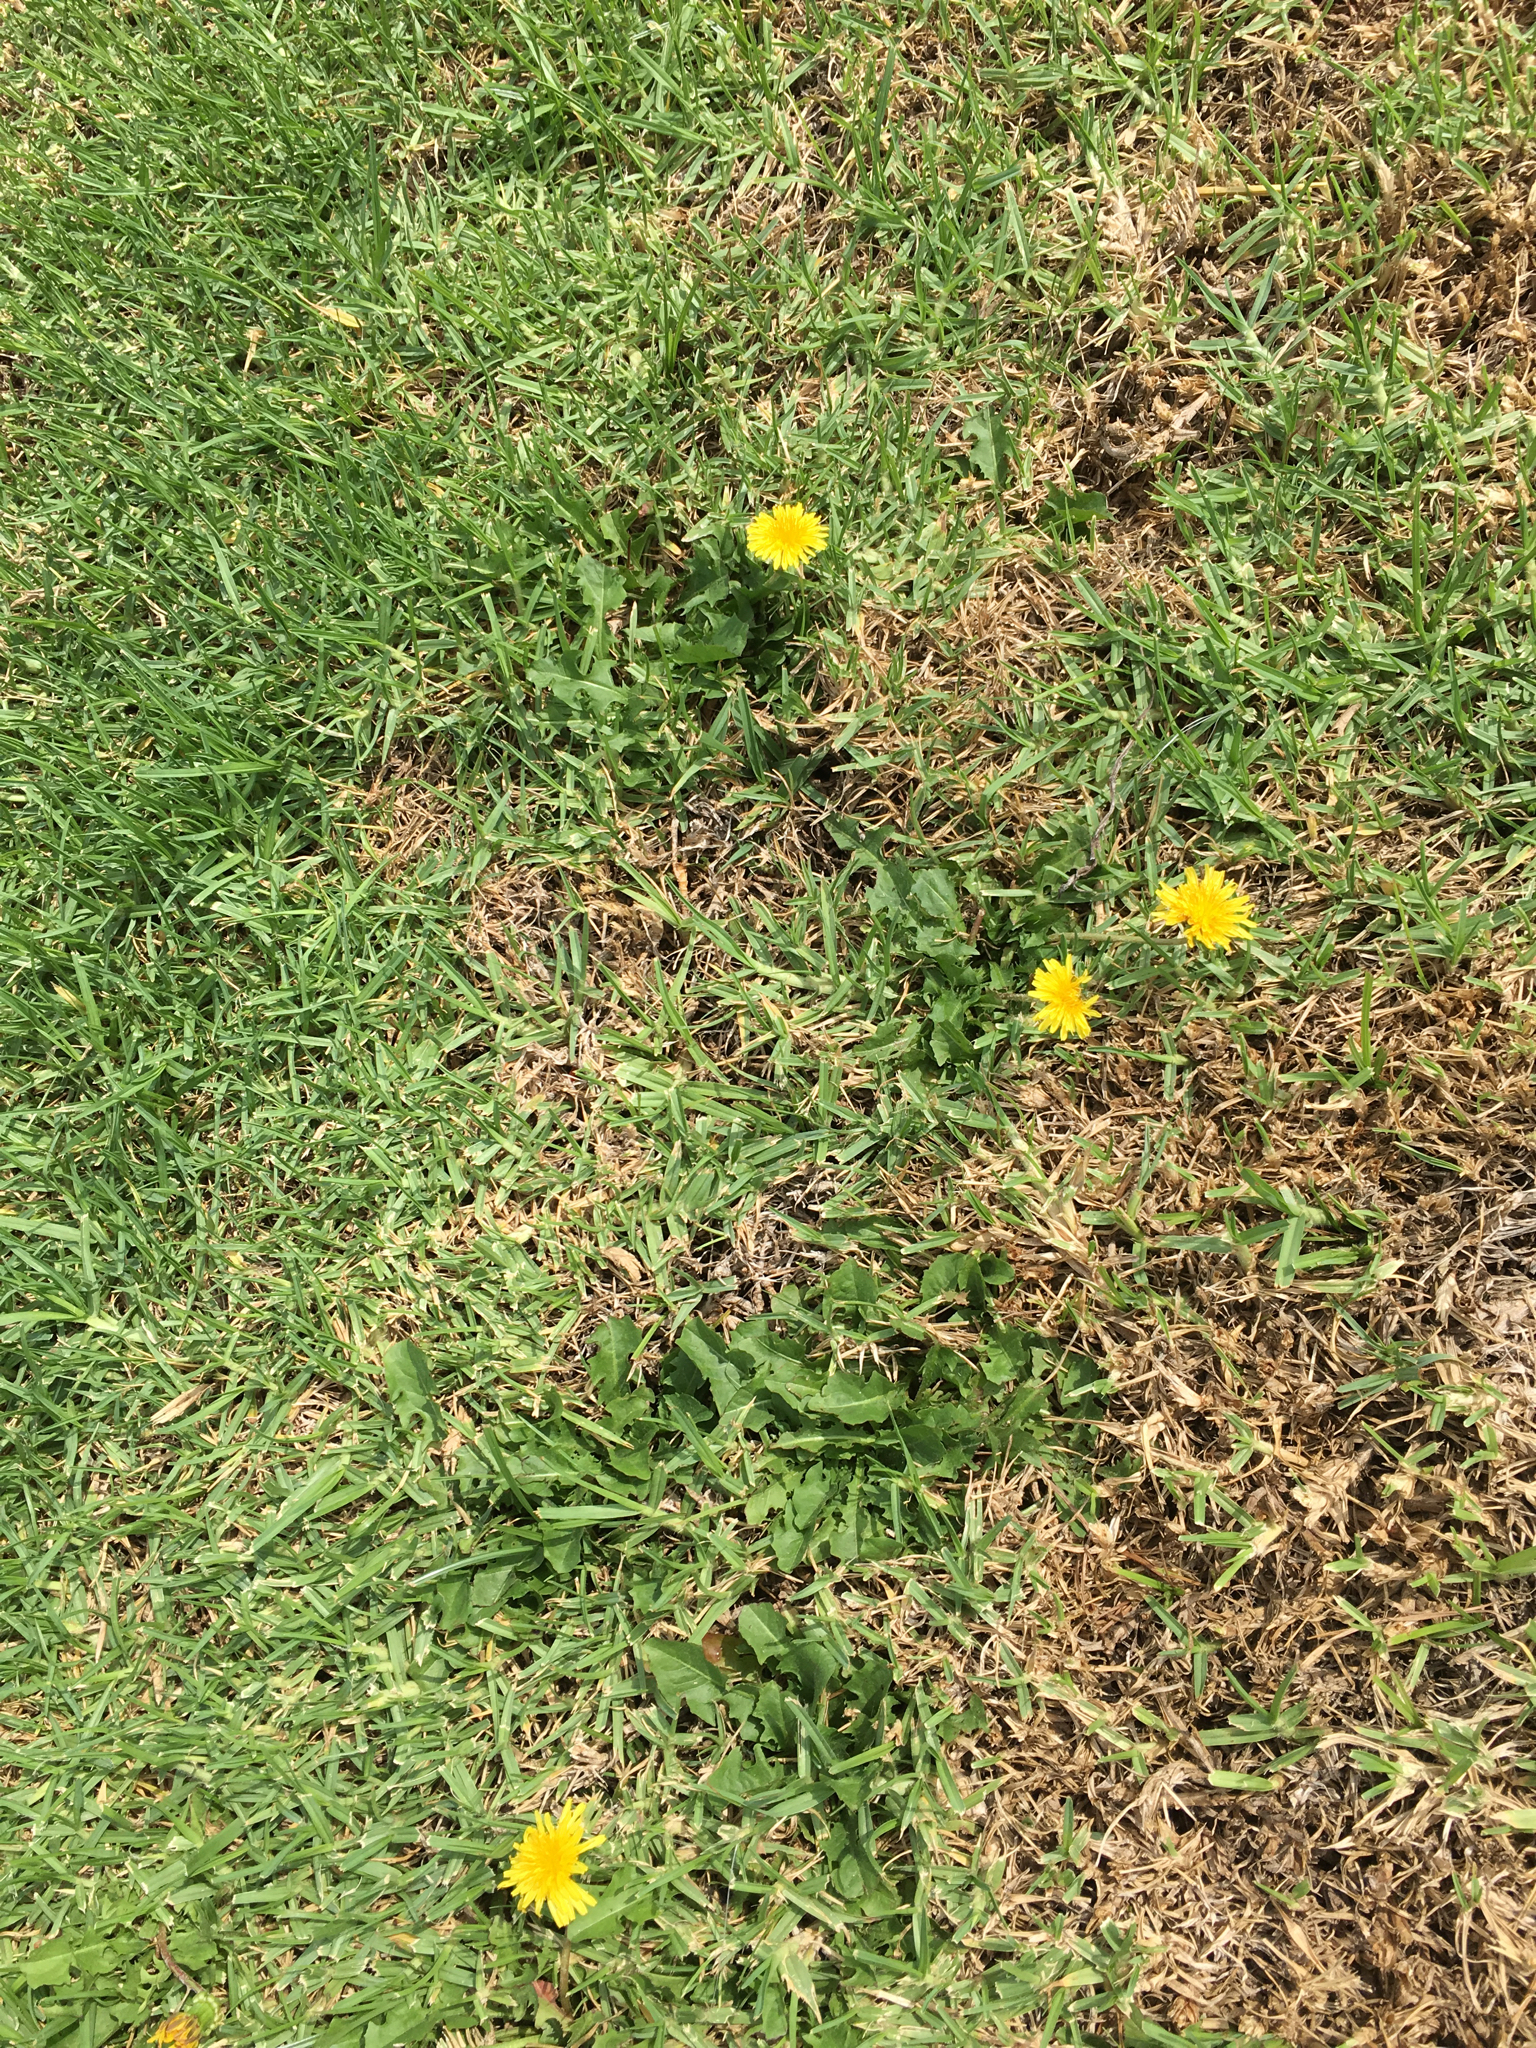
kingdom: Plantae
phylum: Tracheophyta
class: Magnoliopsida
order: Asterales
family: Asteraceae
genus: Taraxacum
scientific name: Taraxacum officinale
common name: Common dandelion
